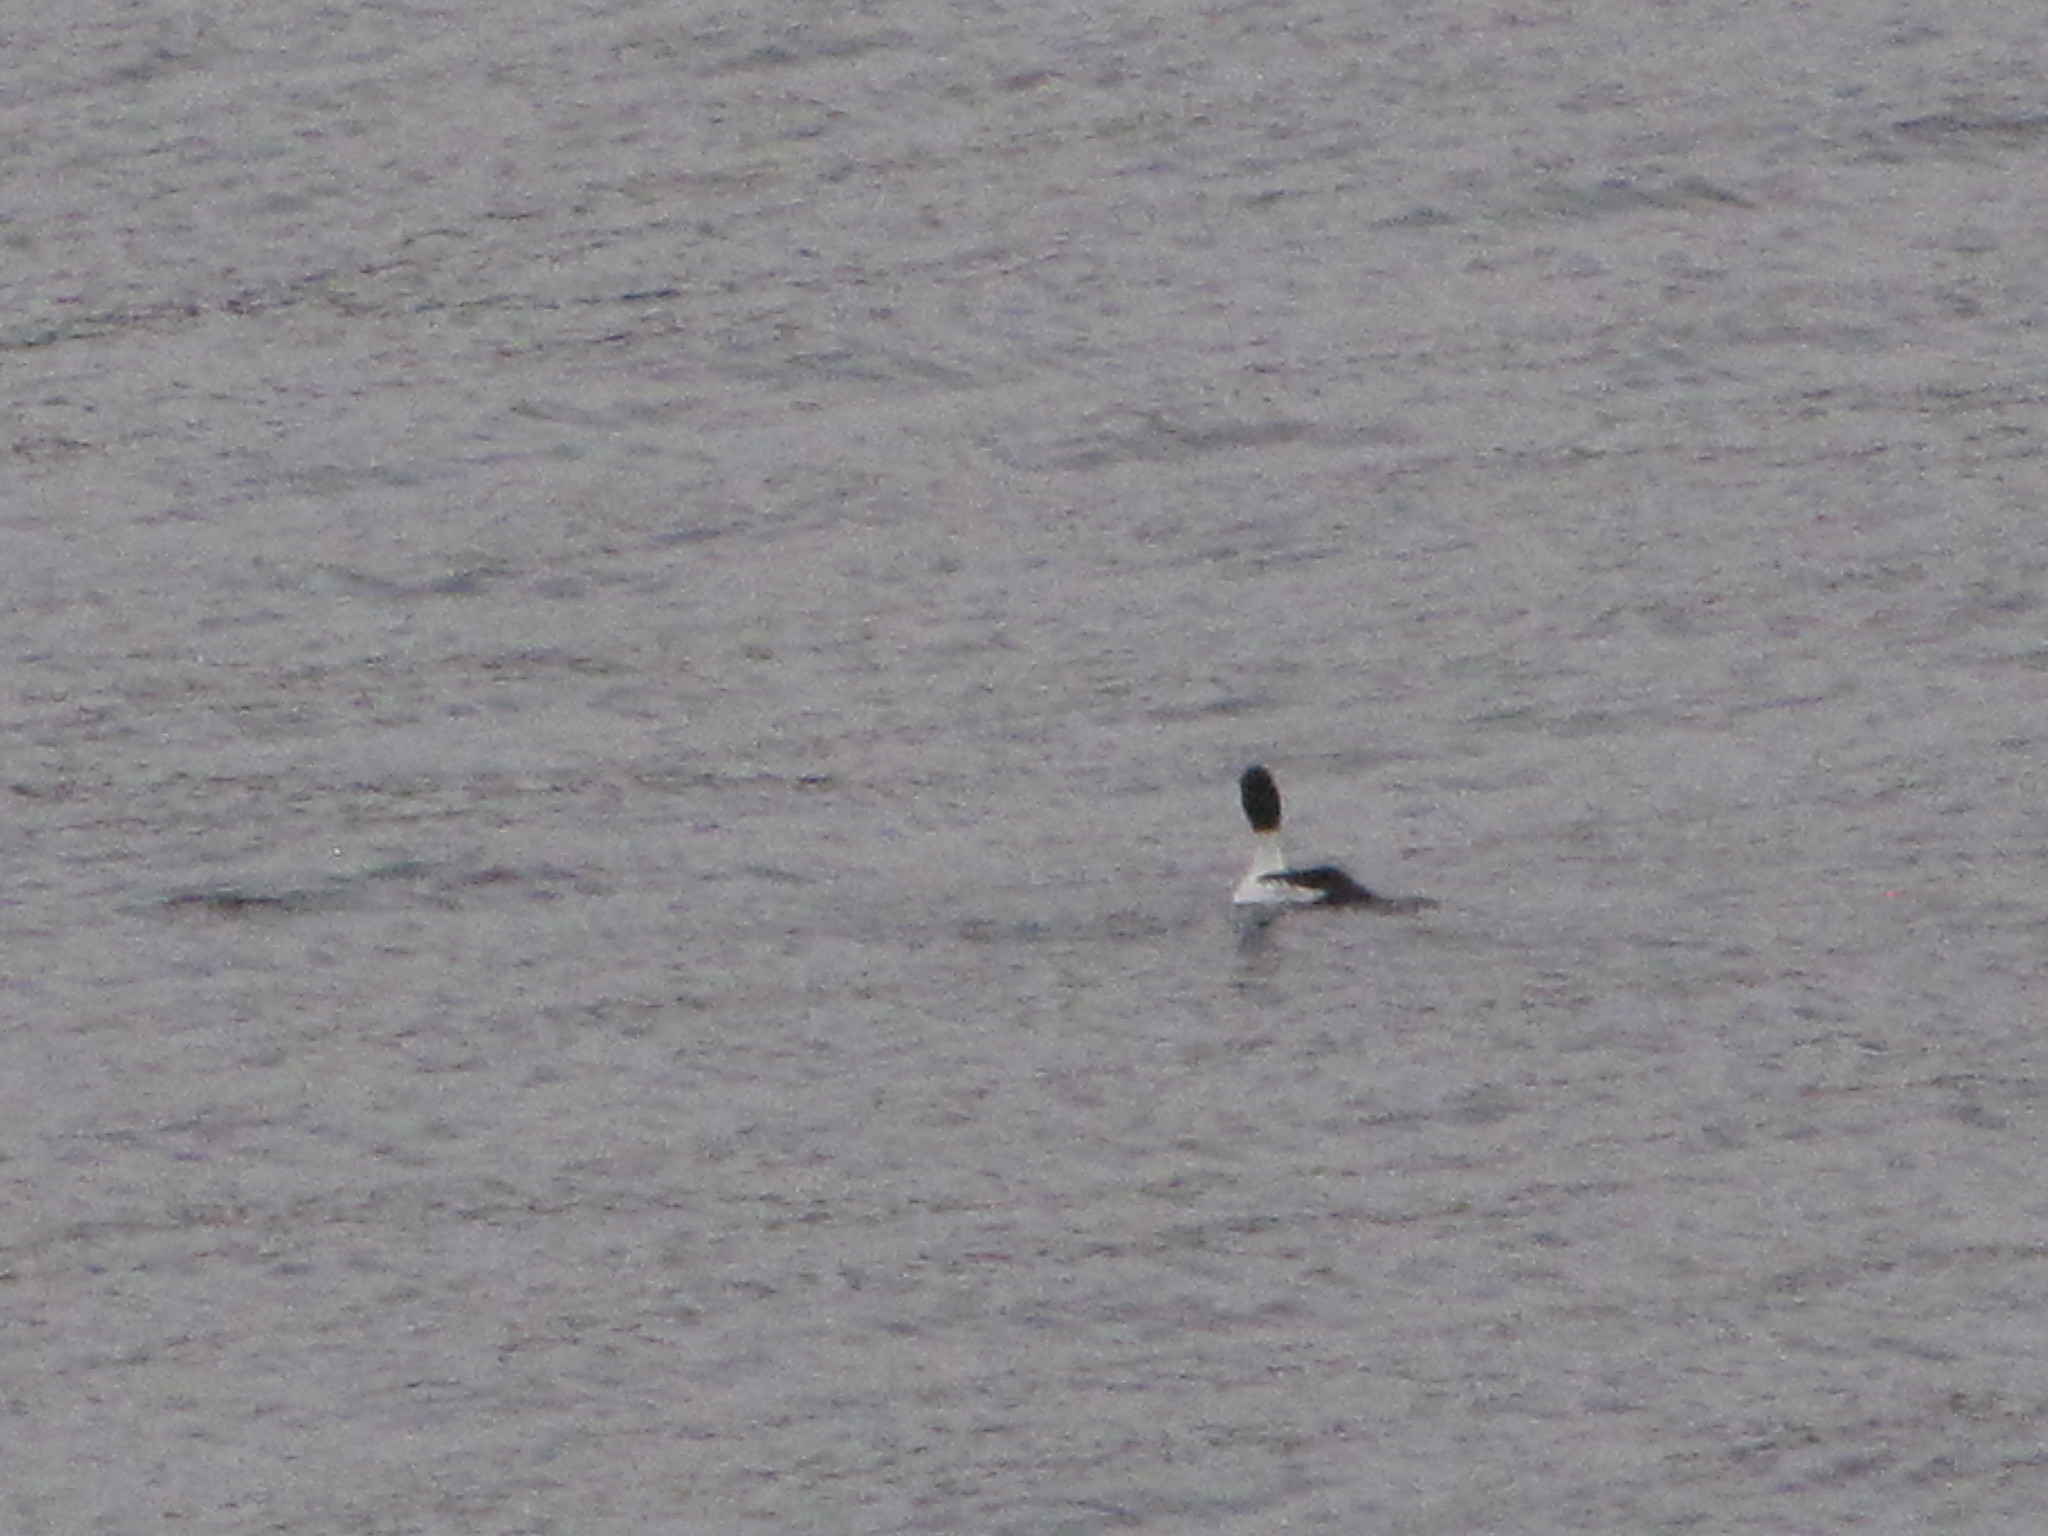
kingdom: Animalia
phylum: Chordata
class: Aves
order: Anseriformes
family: Anatidae
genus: Bucephala
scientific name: Bucephala clangula
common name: Common goldeneye
